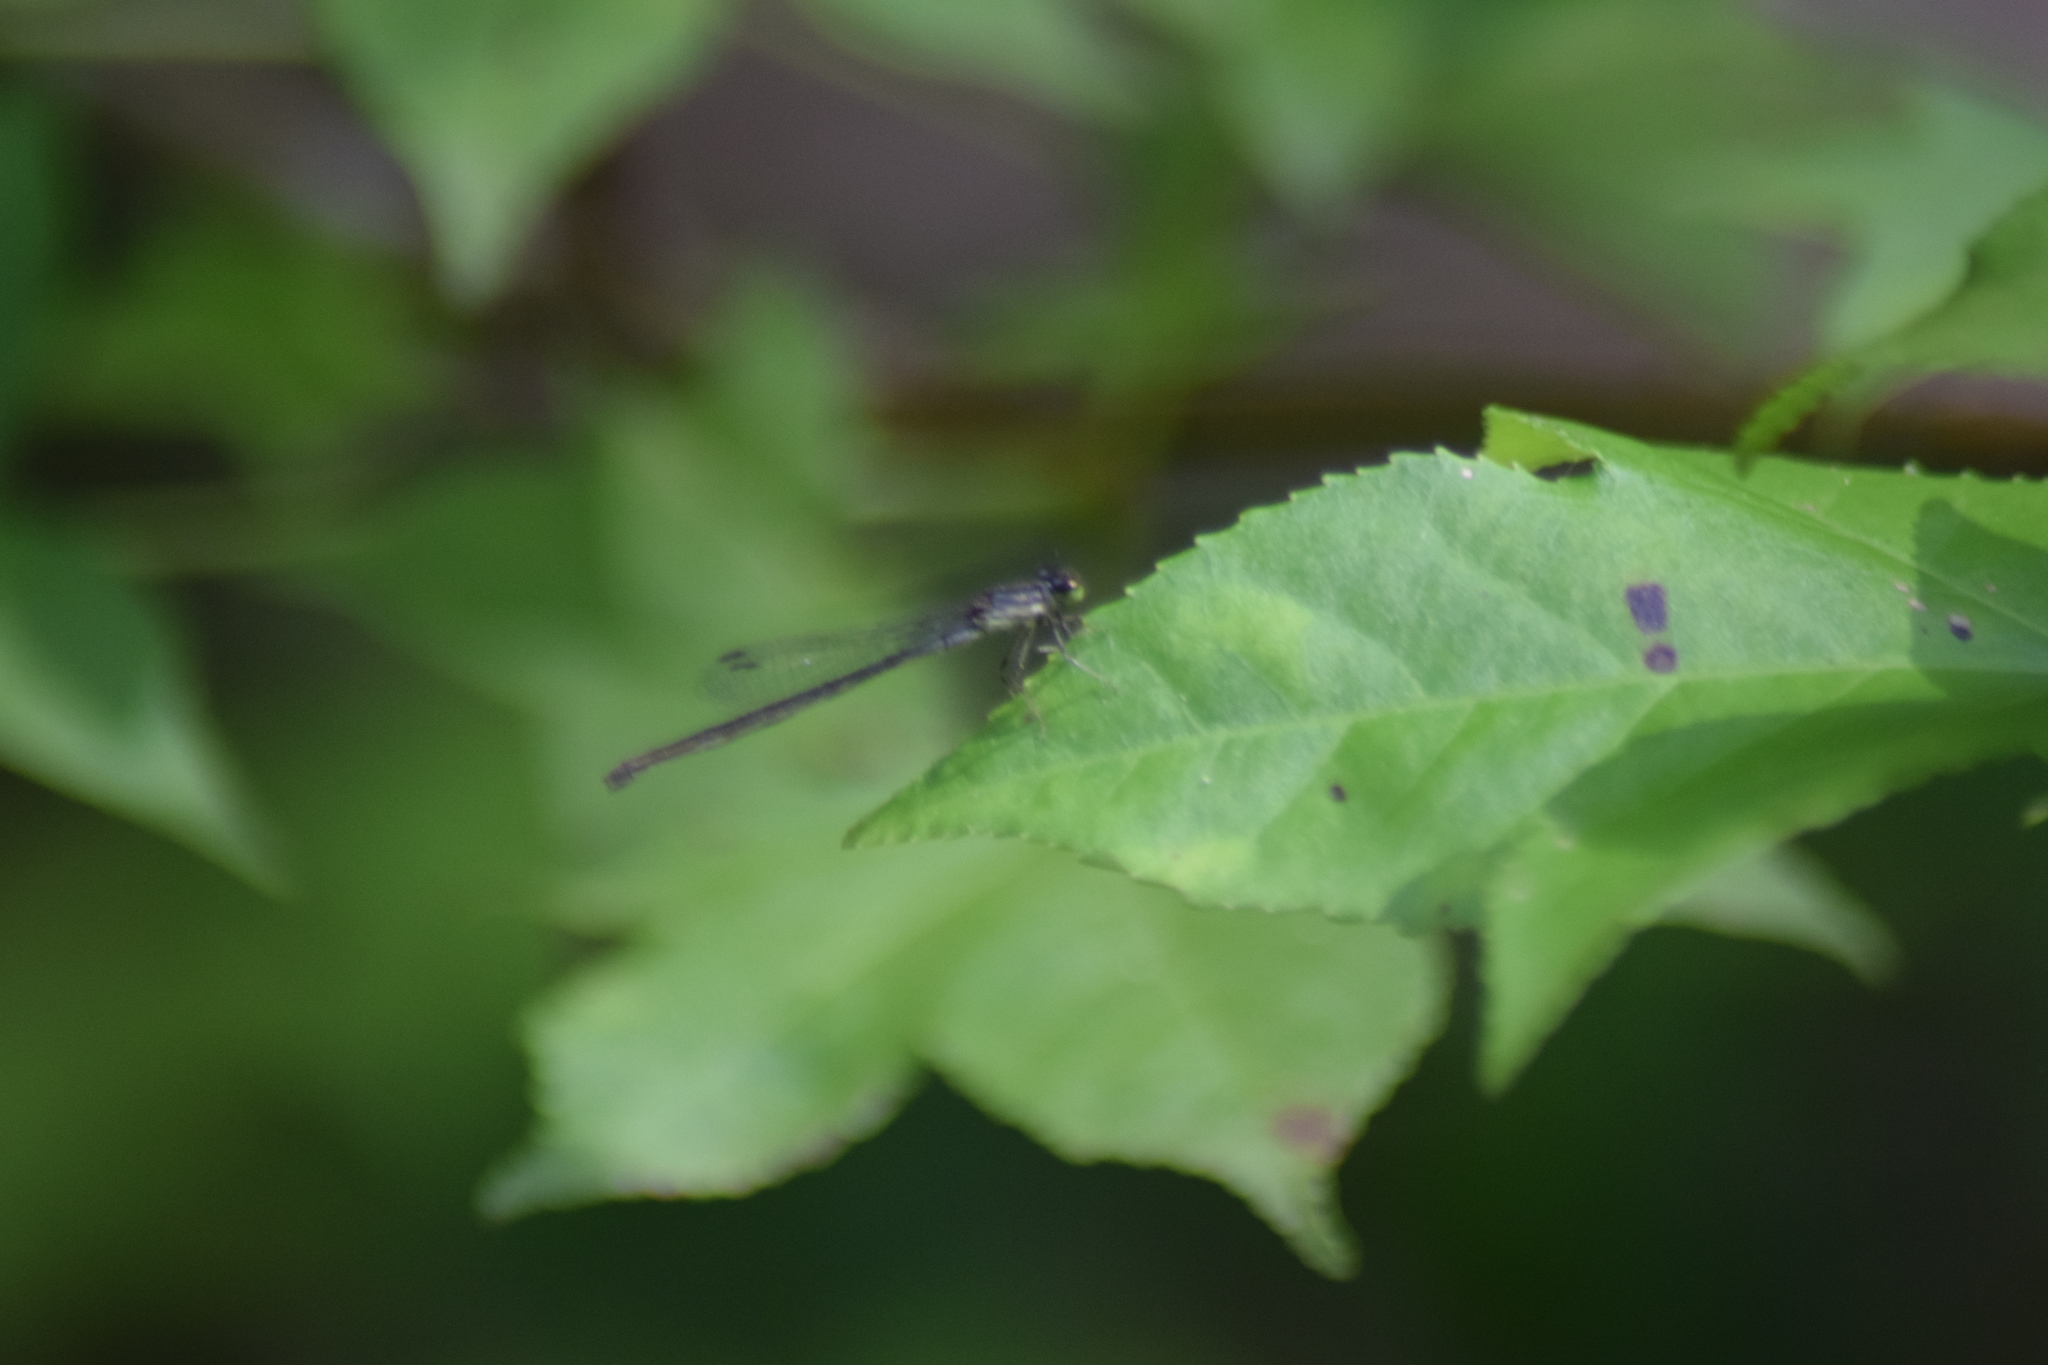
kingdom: Animalia
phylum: Arthropoda
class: Insecta
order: Odonata
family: Coenagrionidae
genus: Ischnura
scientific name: Ischnura verticalis
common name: Eastern forktail
